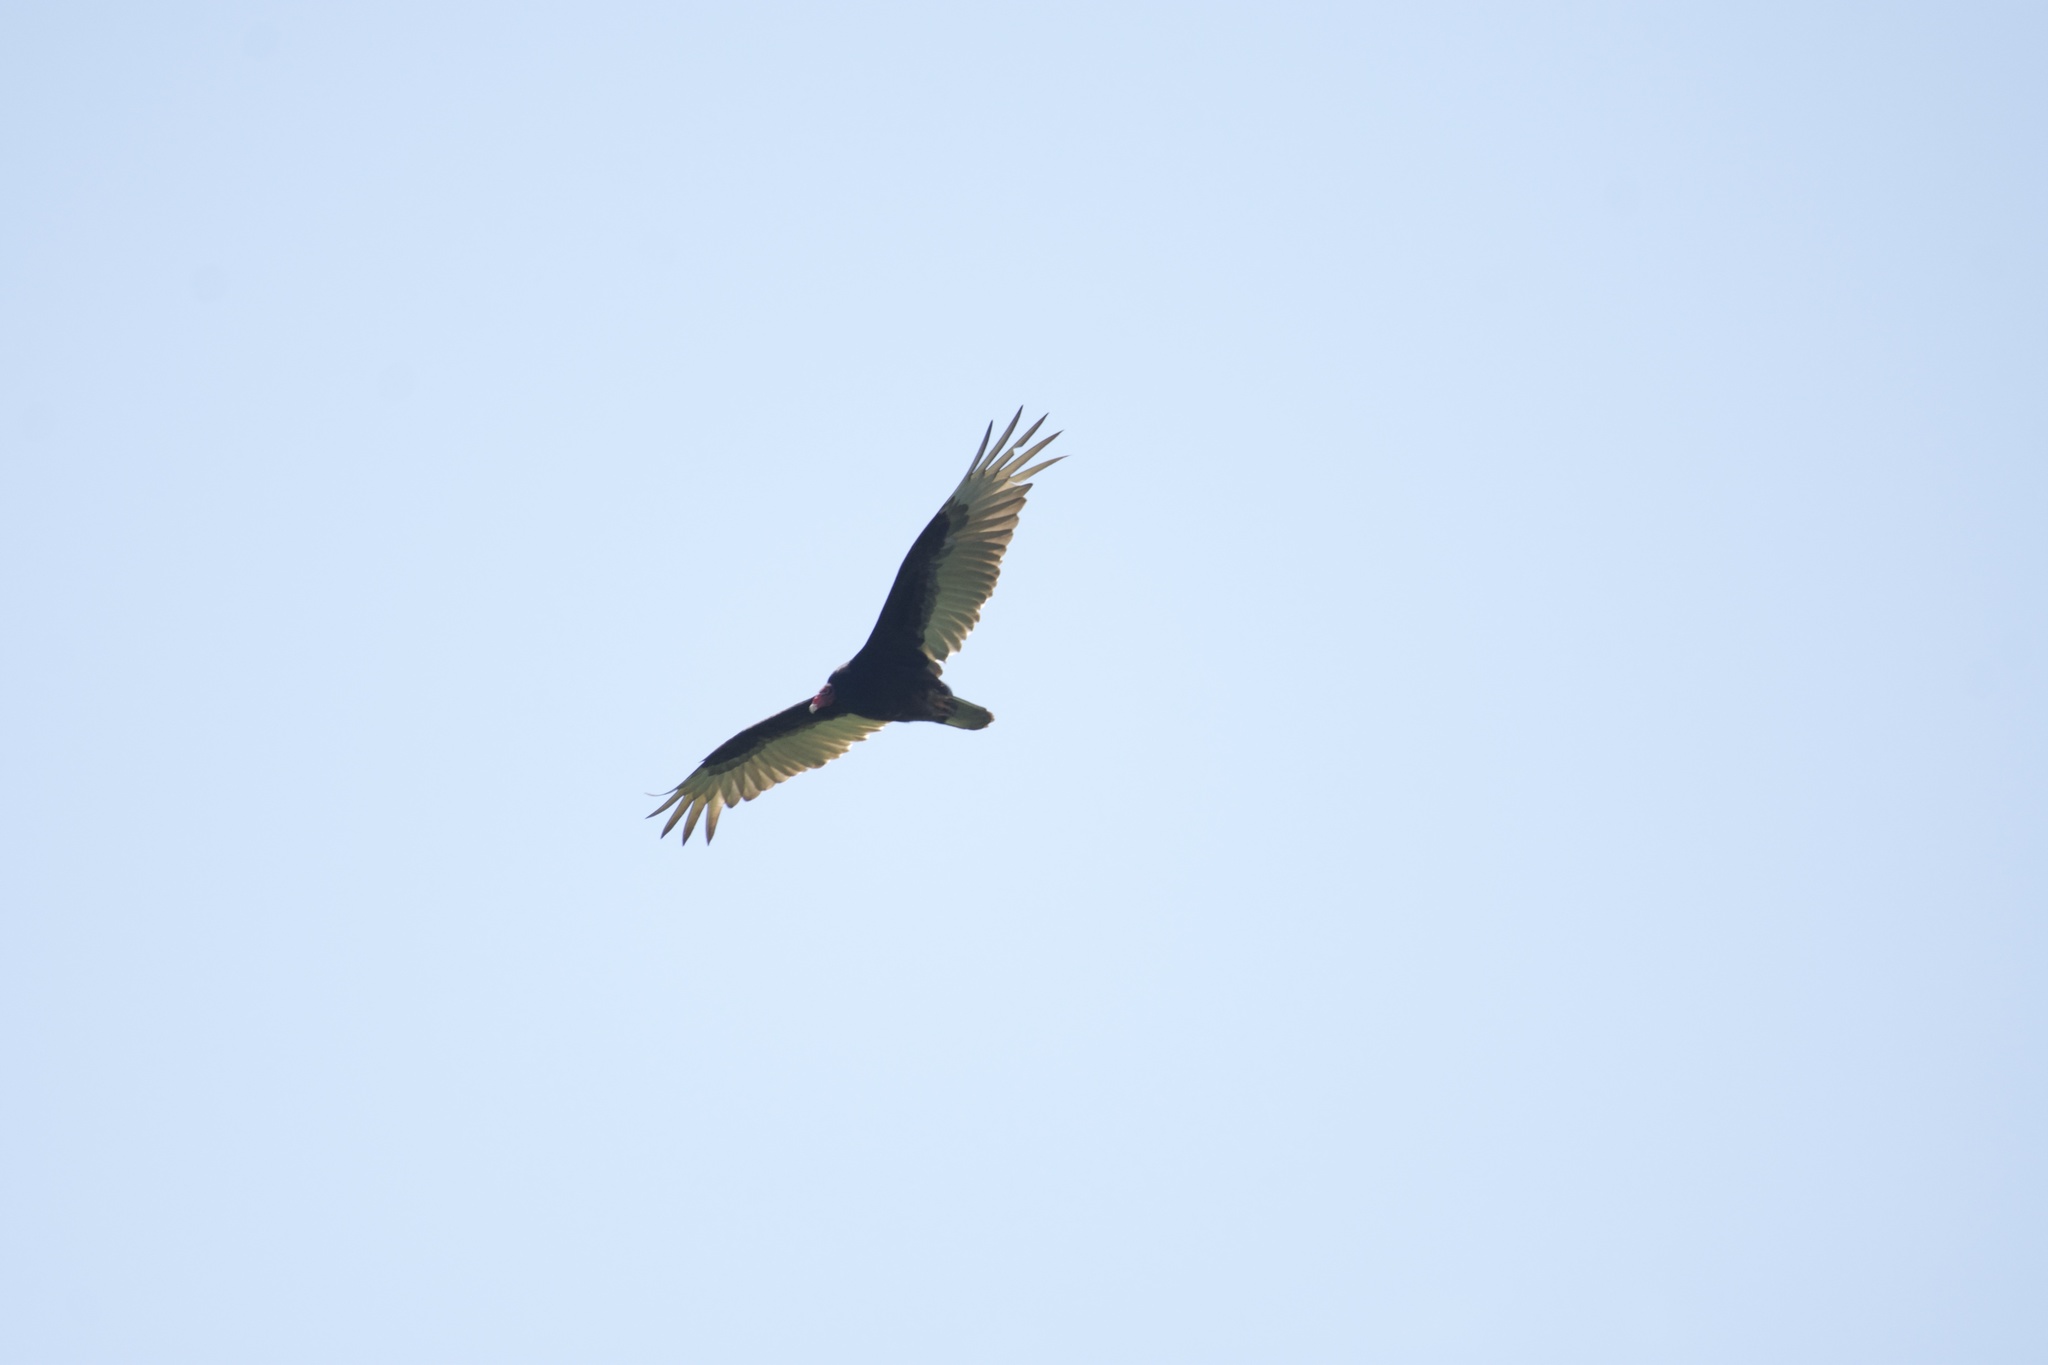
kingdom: Animalia
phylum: Chordata
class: Aves
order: Accipitriformes
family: Cathartidae
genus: Cathartes
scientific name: Cathartes aura
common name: Turkey vulture
